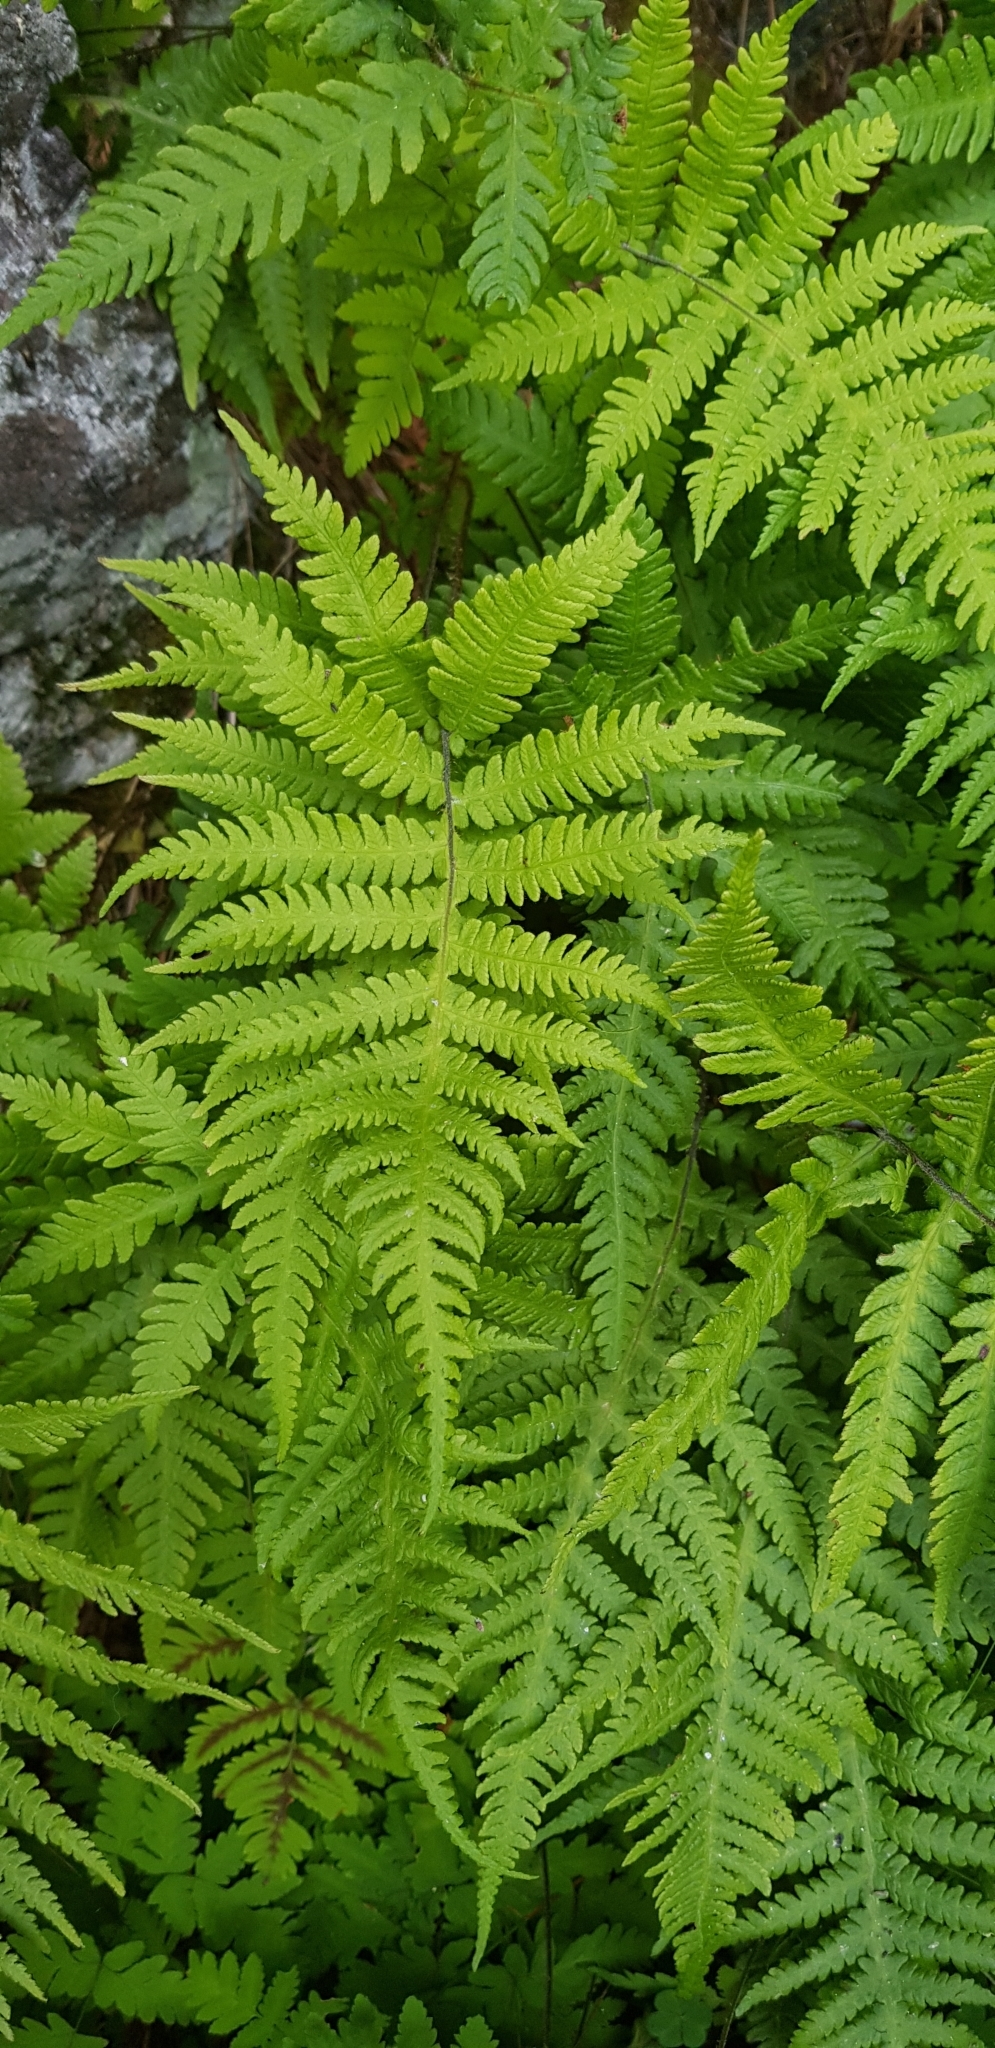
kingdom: Plantae
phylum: Tracheophyta
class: Polypodiopsida
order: Polypodiales
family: Thelypteridaceae
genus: Phegopteris
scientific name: Phegopteris connectilis
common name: Beech fern
